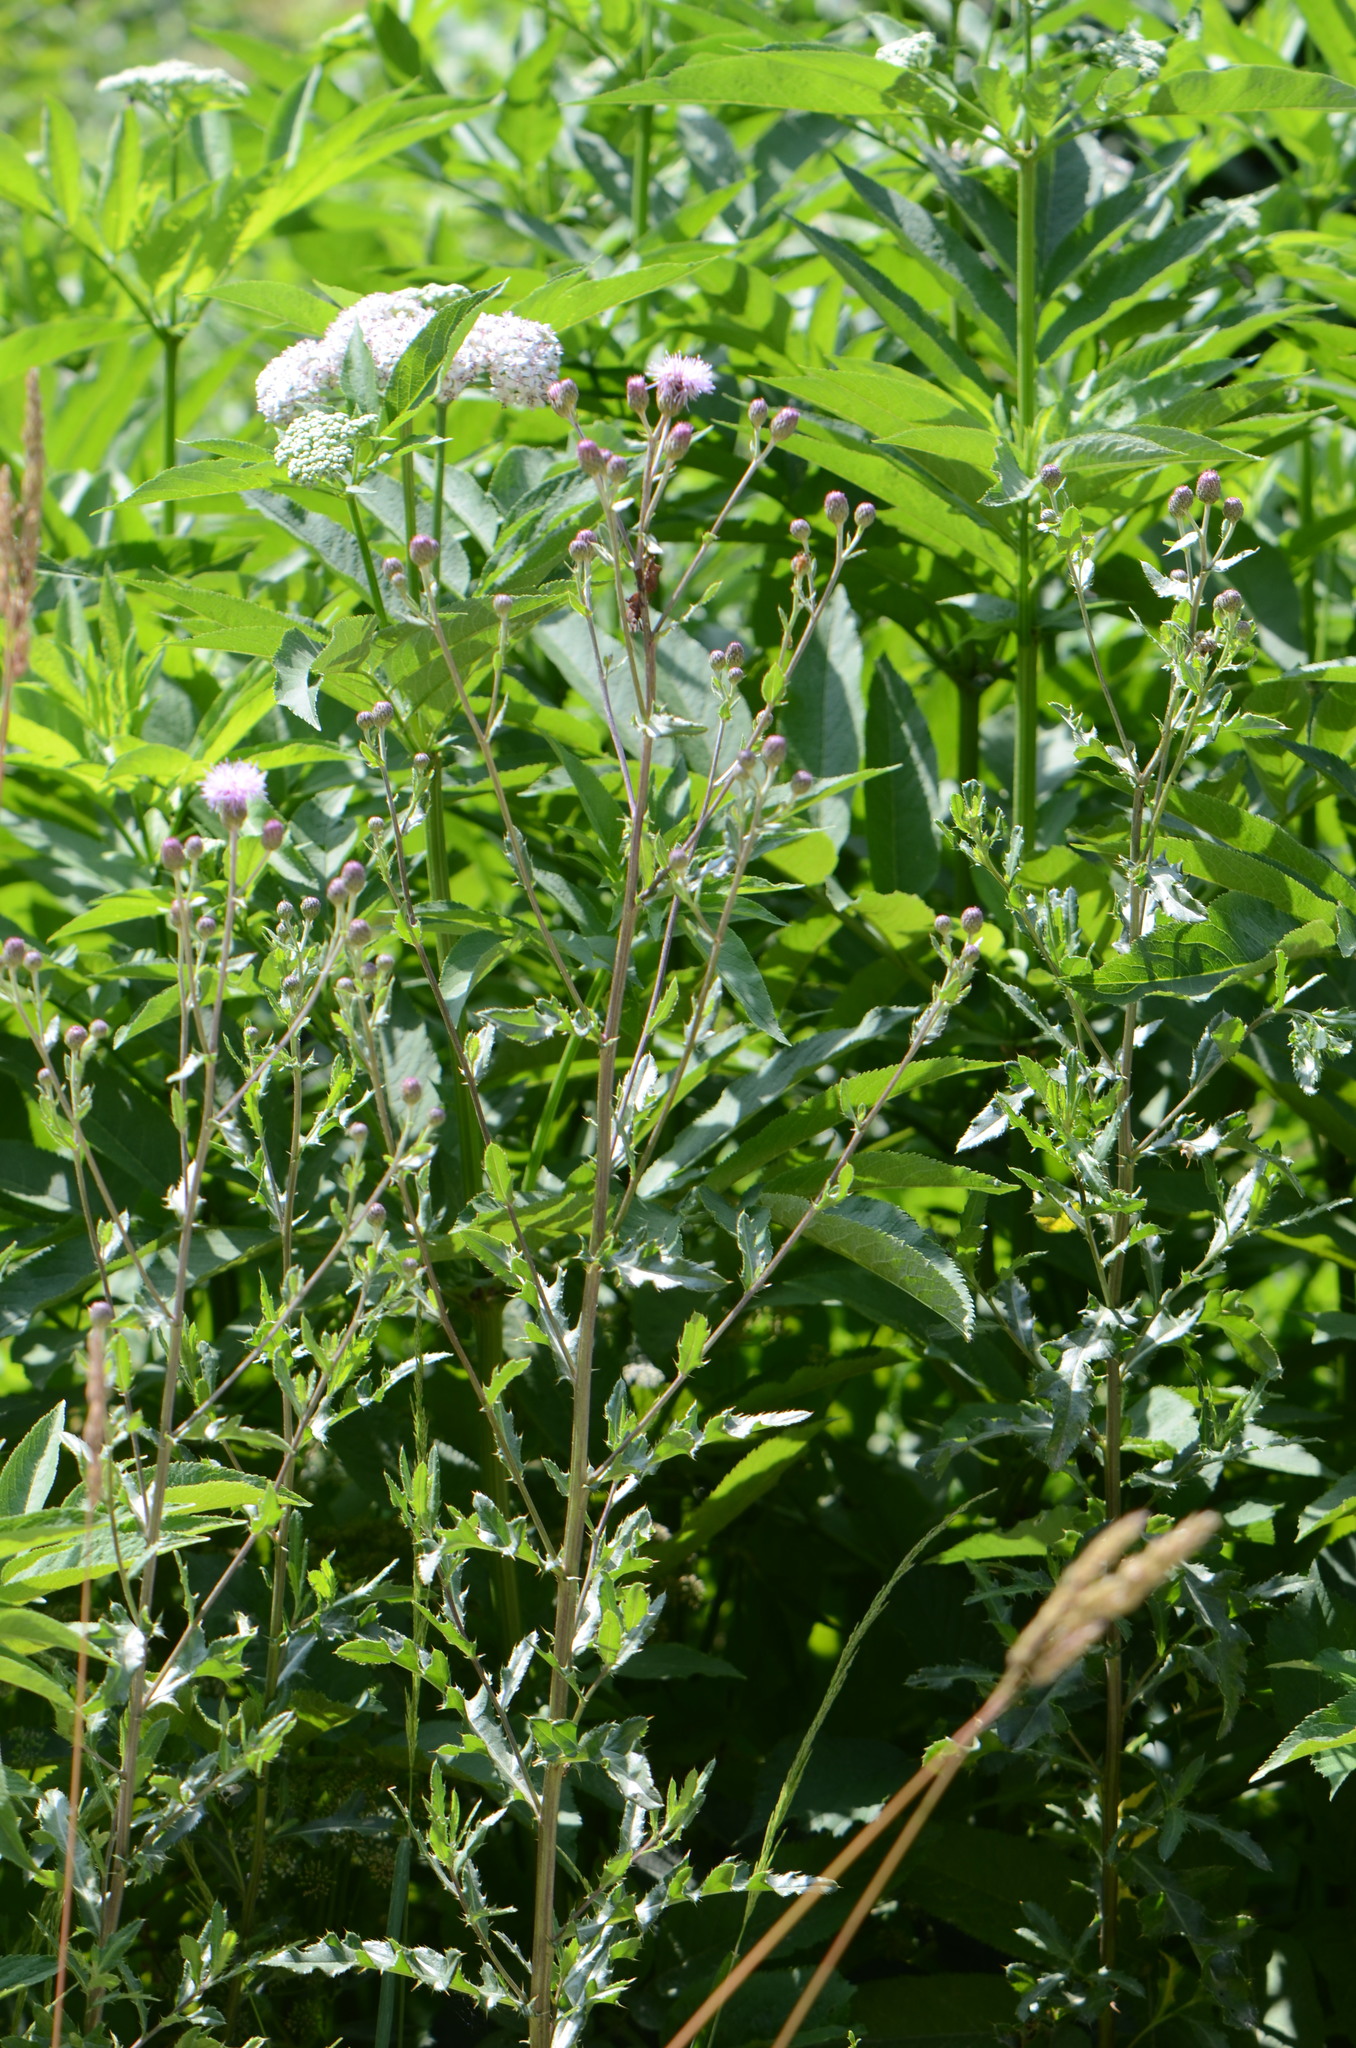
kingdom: Plantae
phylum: Tracheophyta
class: Magnoliopsida
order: Asterales
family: Asteraceae
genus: Cirsium
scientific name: Cirsium arvense
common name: Creeping thistle
